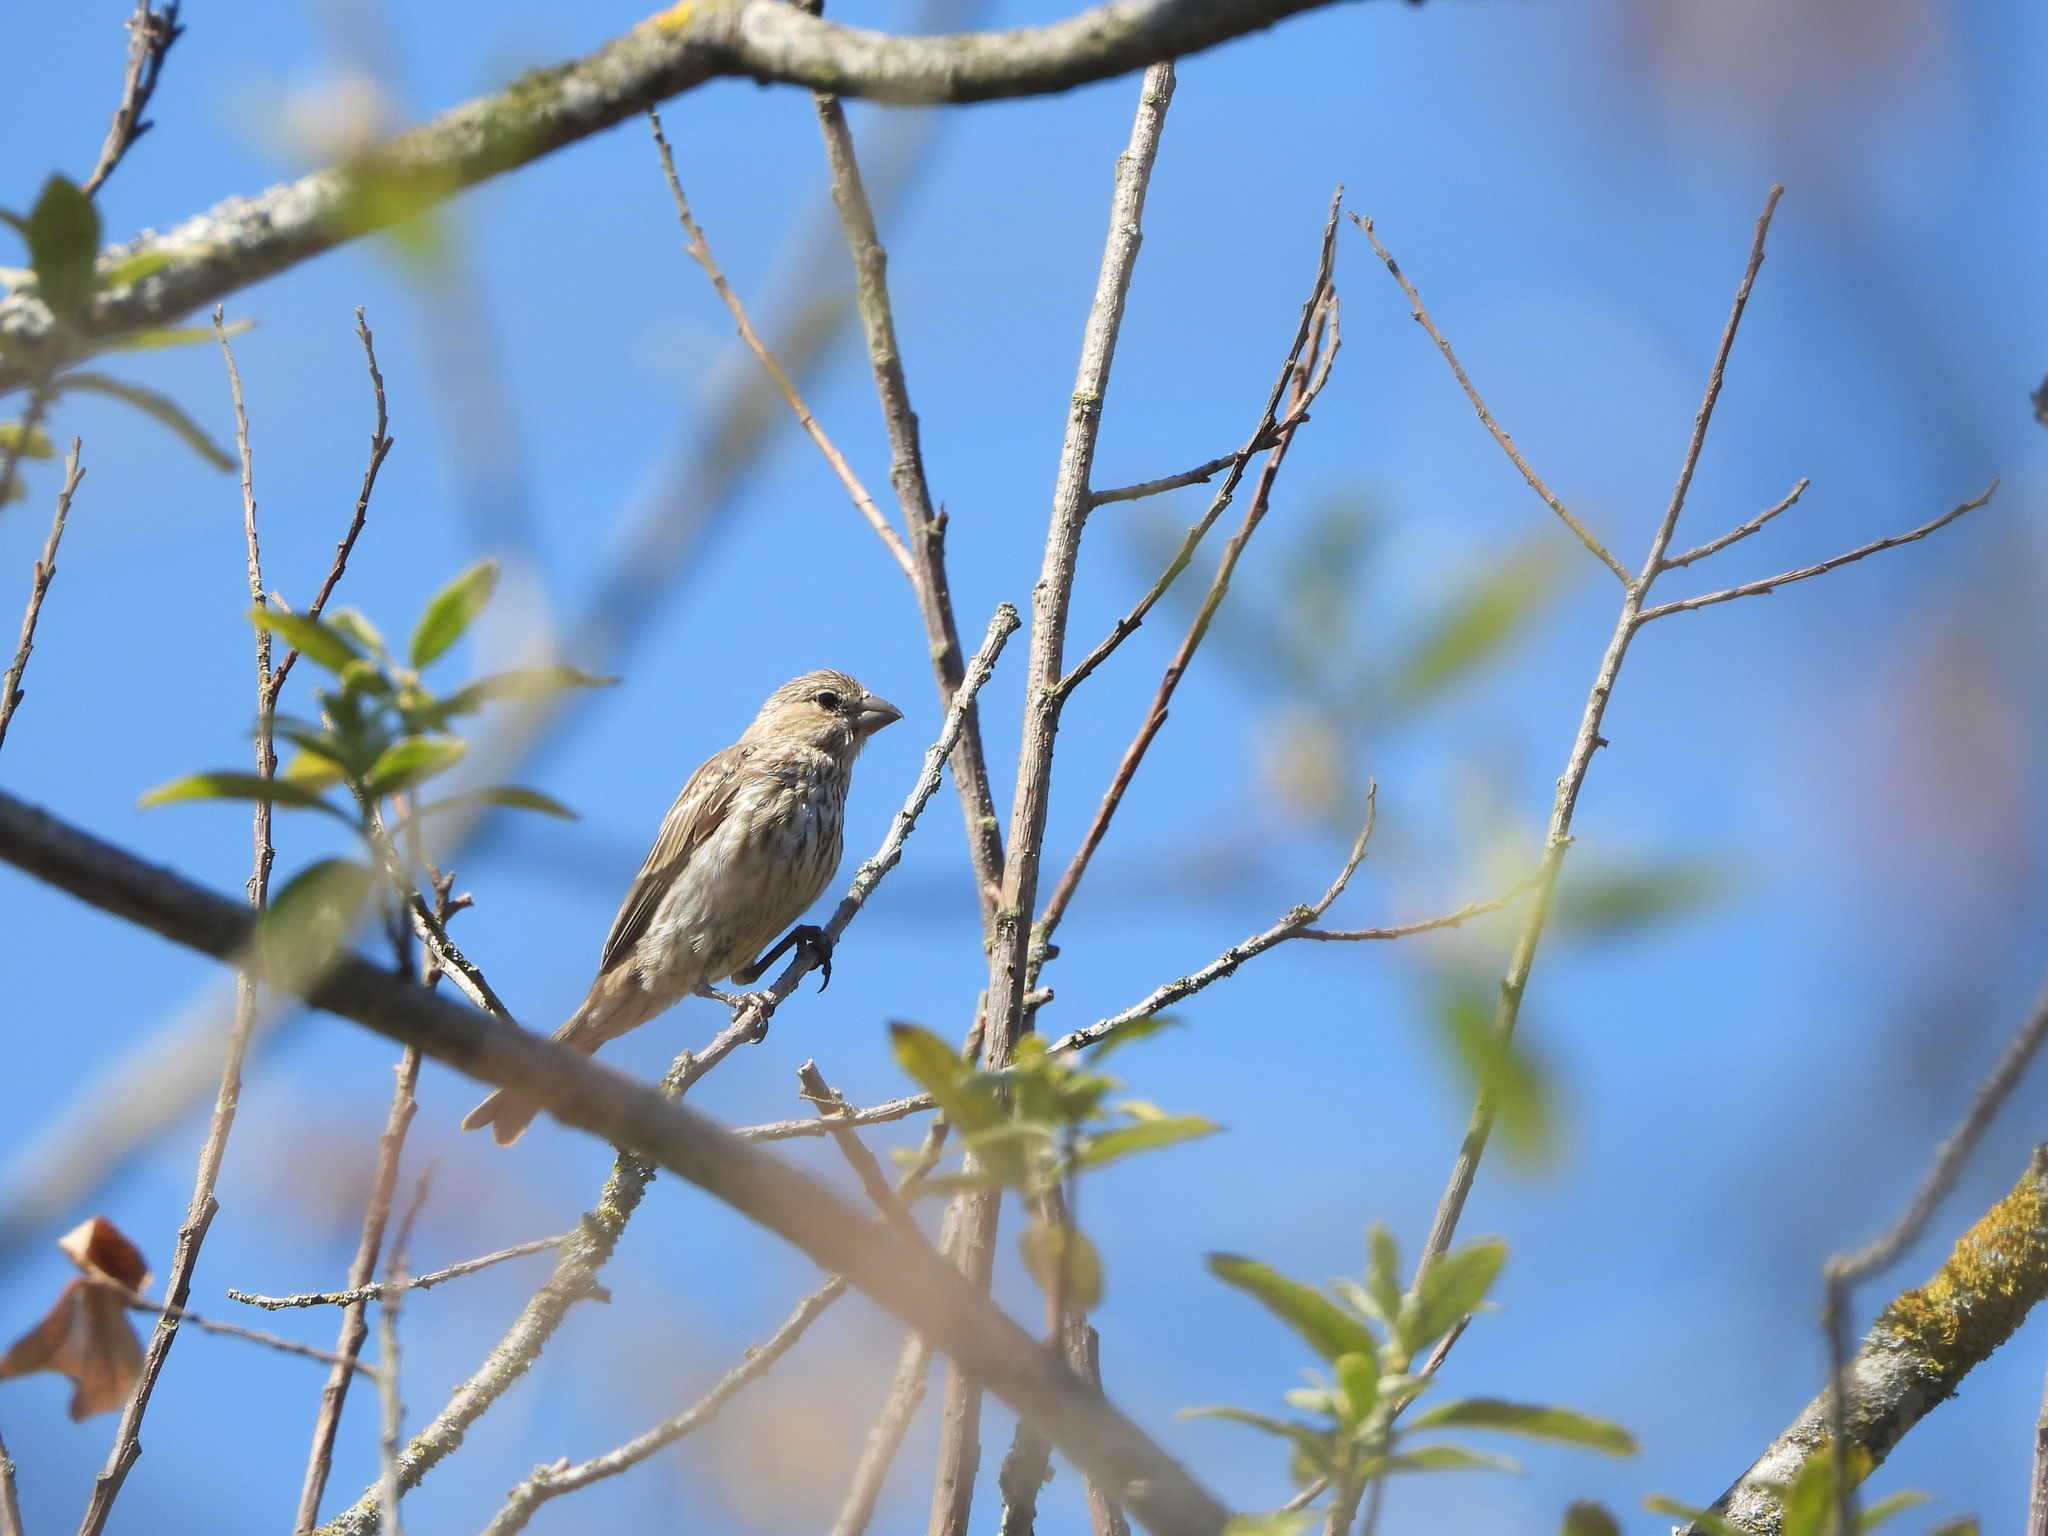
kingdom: Animalia
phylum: Chordata
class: Aves
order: Passeriformes
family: Fringillidae
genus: Haemorhous
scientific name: Haemorhous mexicanus
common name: House finch
